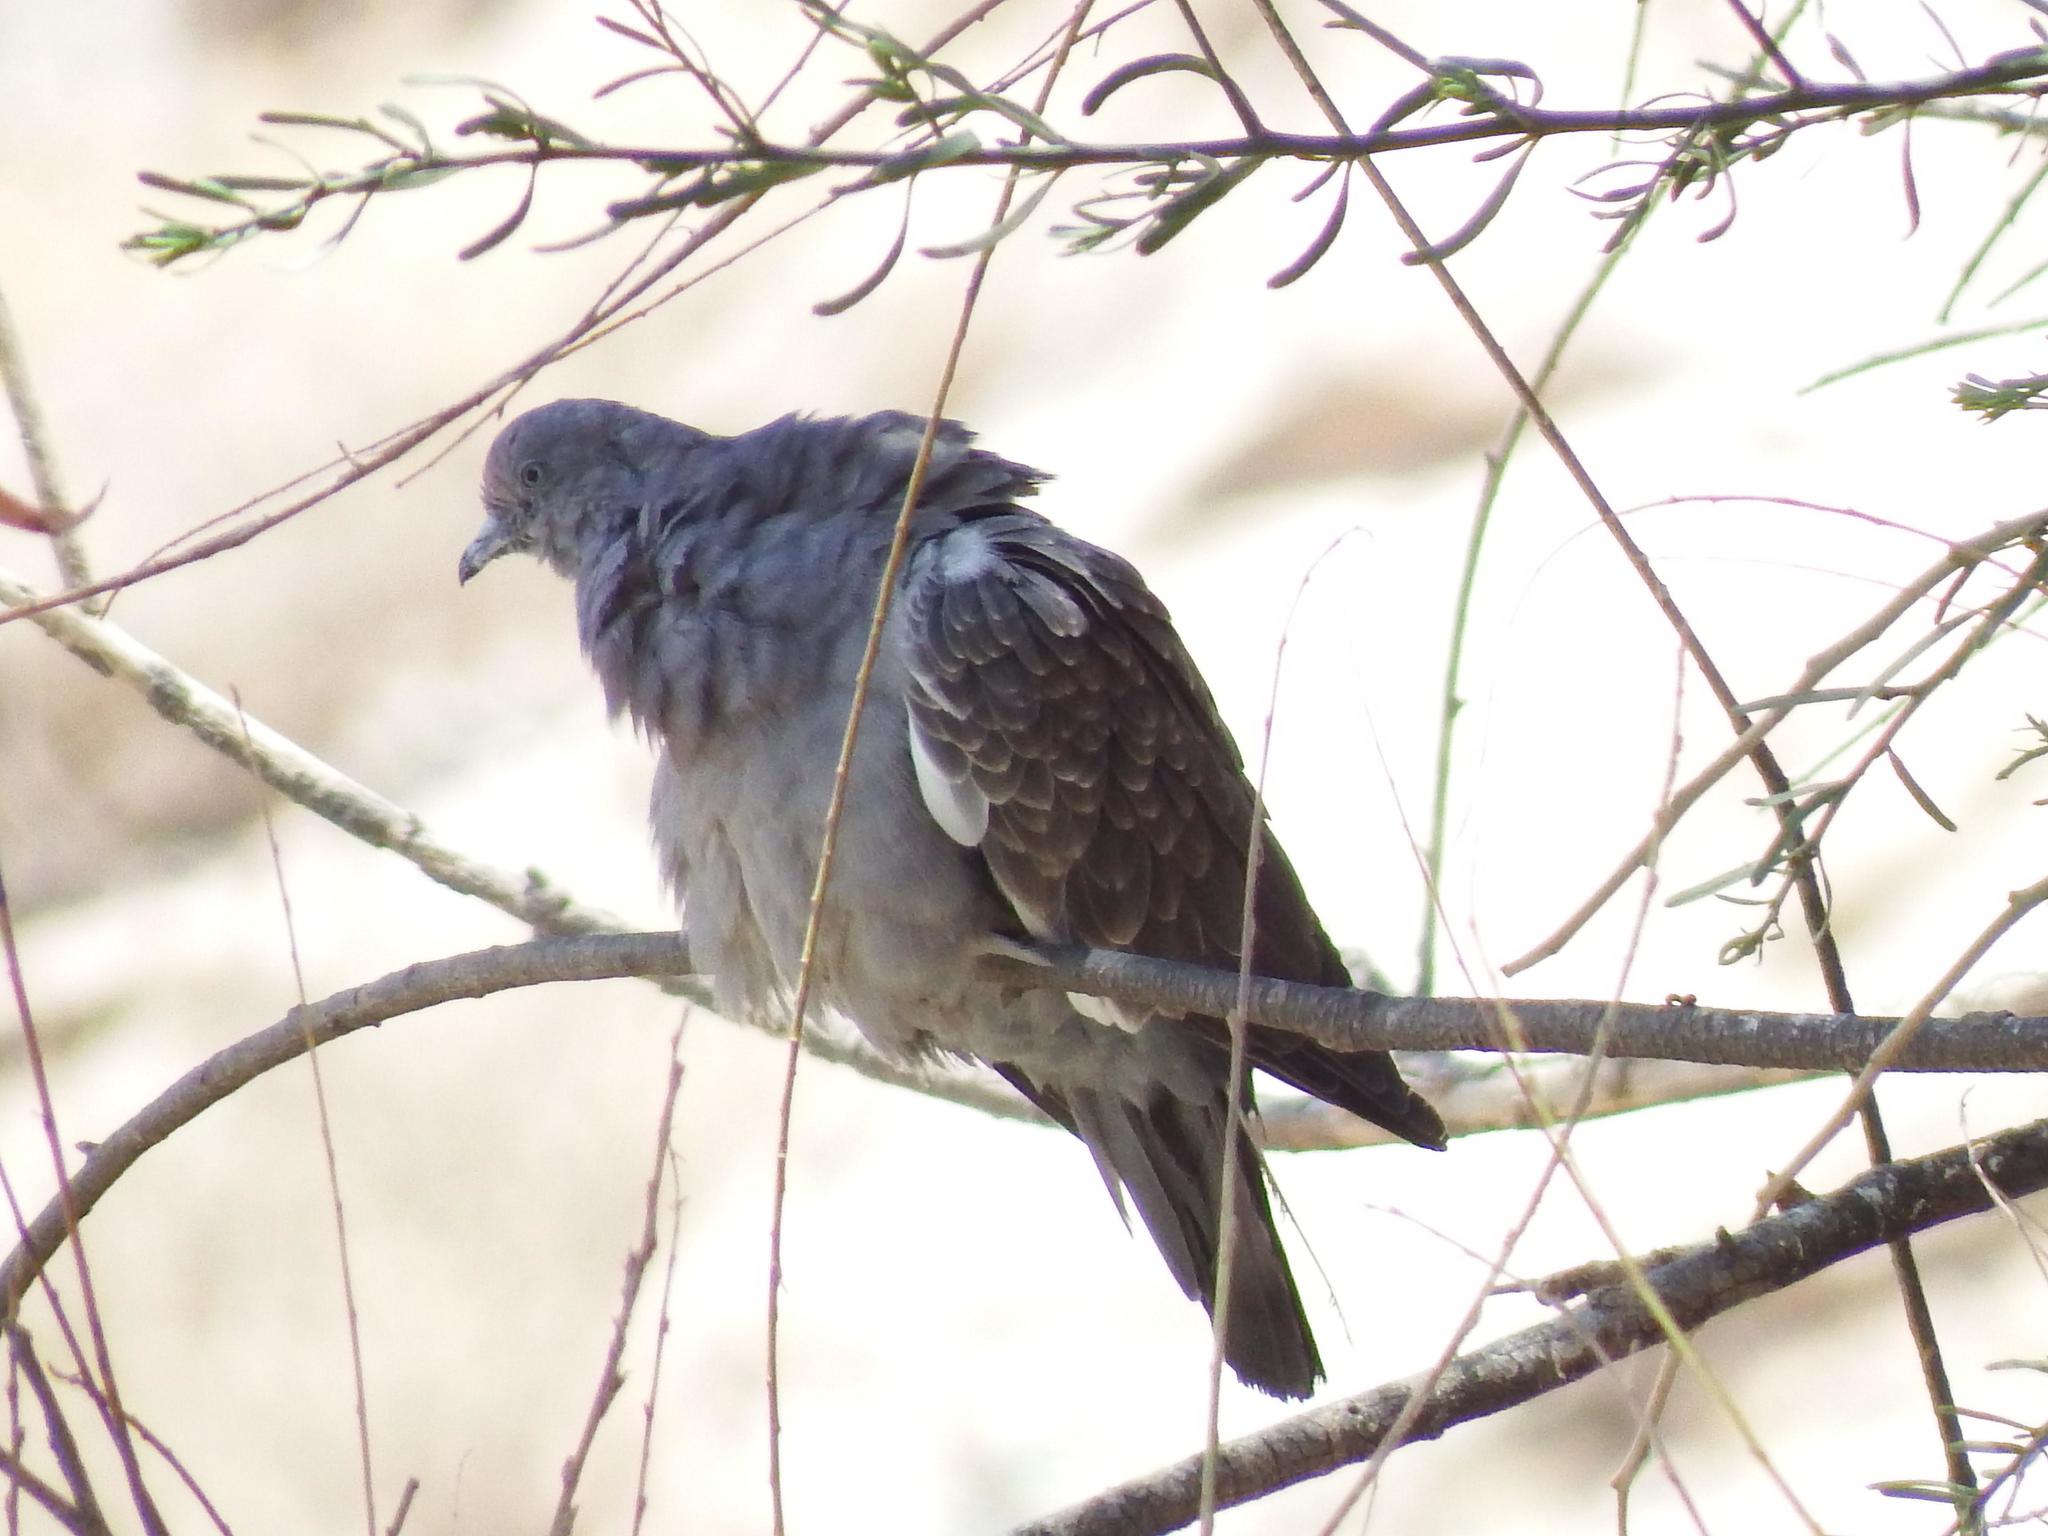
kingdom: Animalia
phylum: Chordata
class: Aves
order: Columbiformes
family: Columbidae
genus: Patagioenas
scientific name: Patagioenas maculosa
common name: Spot-winged pigeon
